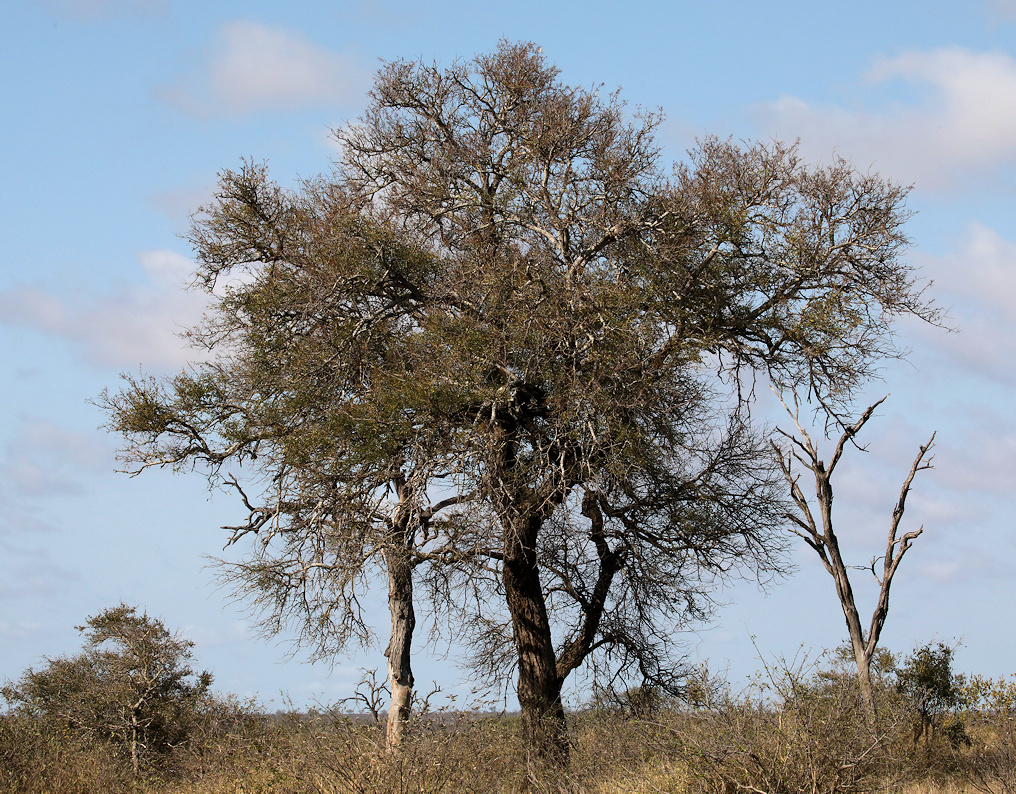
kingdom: Plantae
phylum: Tracheophyta
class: Magnoliopsida
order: Fabales
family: Fabaceae
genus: Senegalia
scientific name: Senegalia nigrescens
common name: Knobthorn
